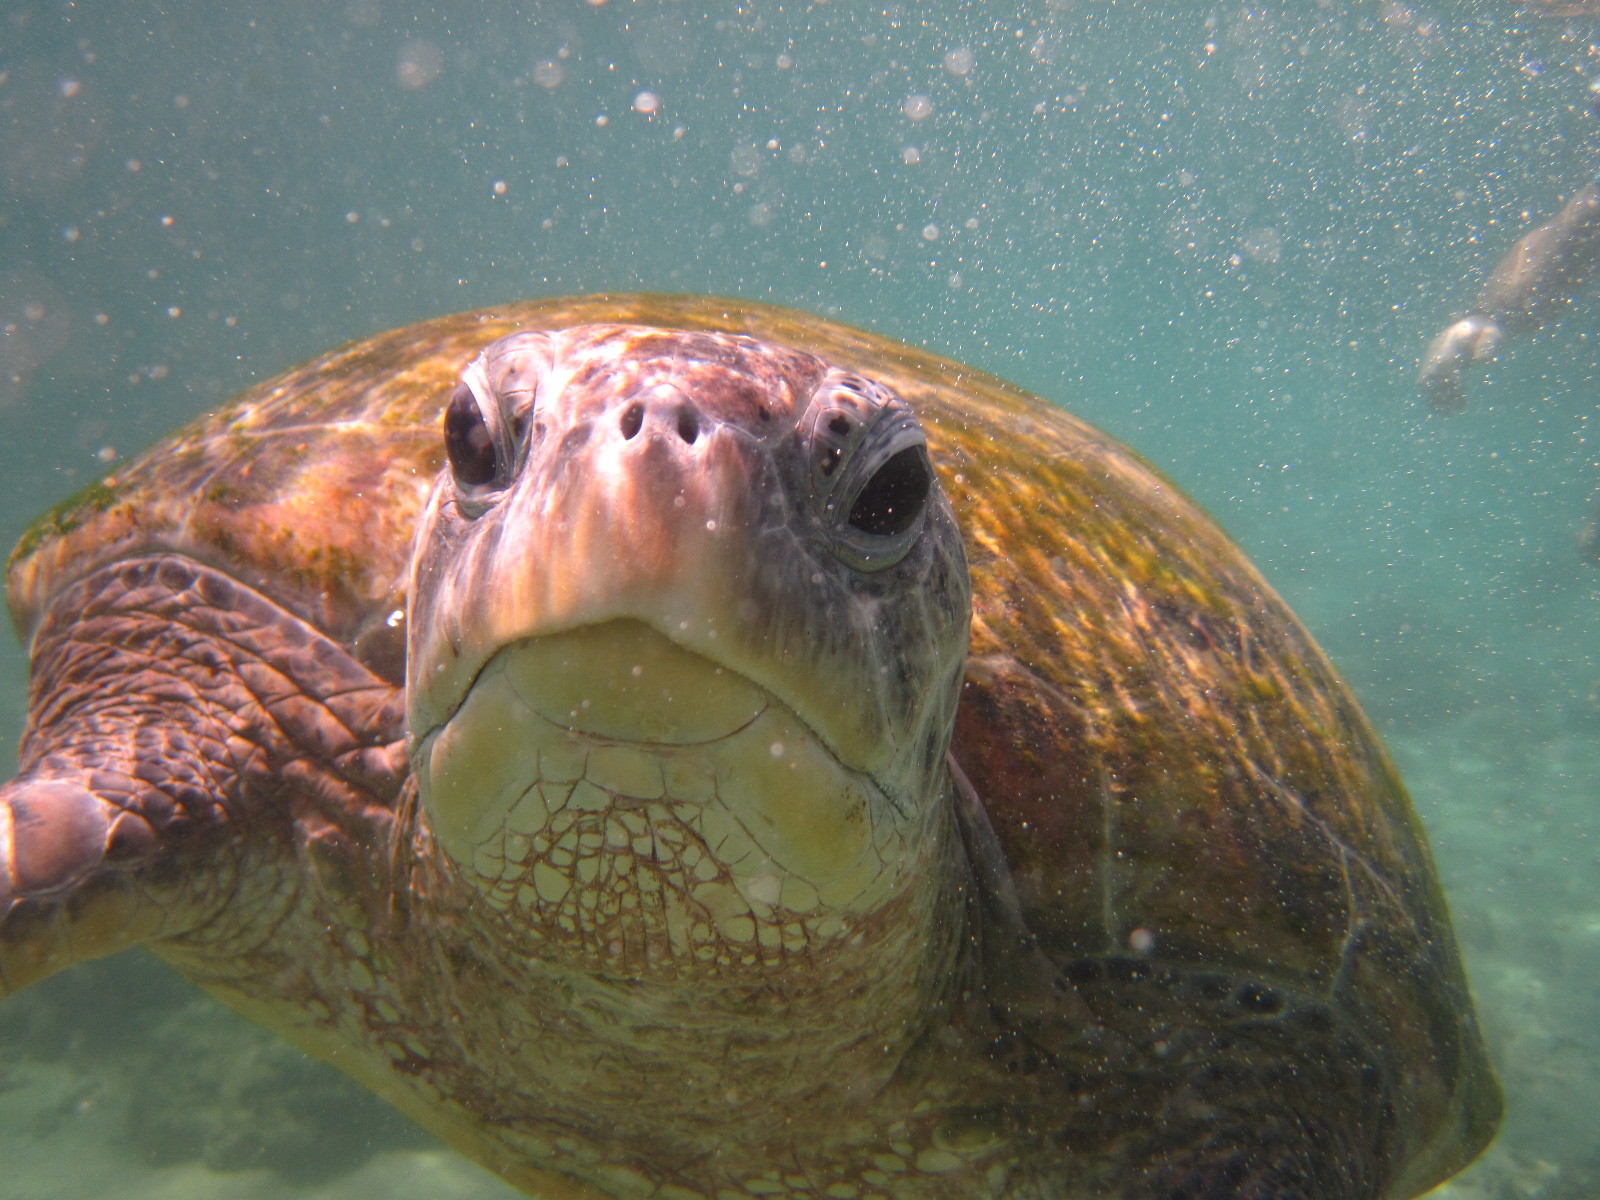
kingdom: Animalia
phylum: Chordata
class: Testudines
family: Cheloniidae
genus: Chelonia
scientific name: Chelonia mydas
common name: Green turtle
